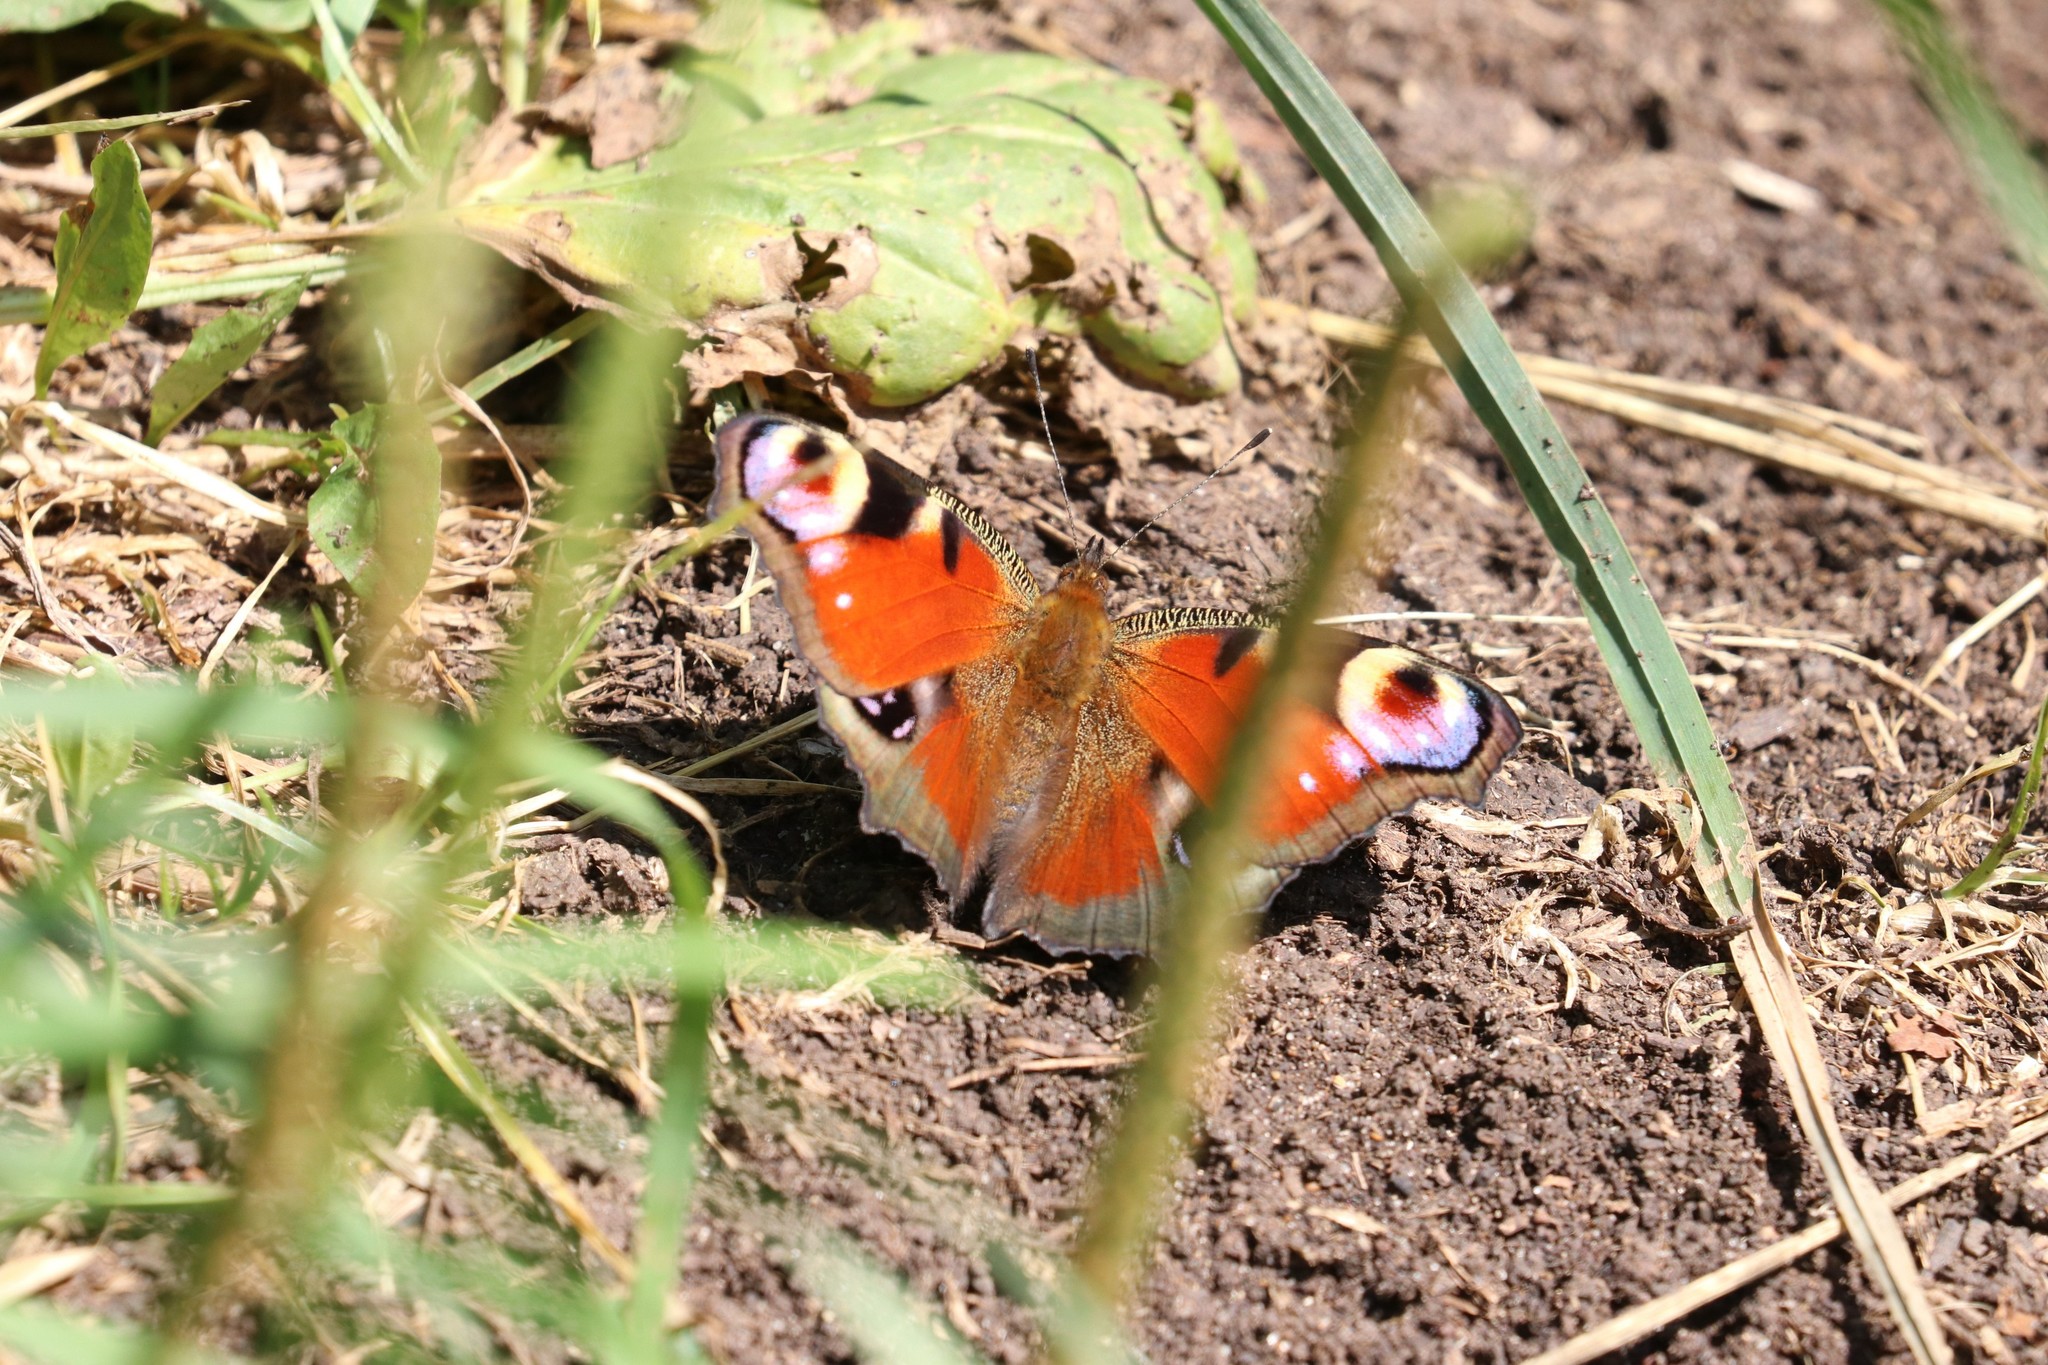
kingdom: Animalia
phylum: Arthropoda
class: Insecta
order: Lepidoptera
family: Nymphalidae
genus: Aglais
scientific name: Aglais io
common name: Peacock
